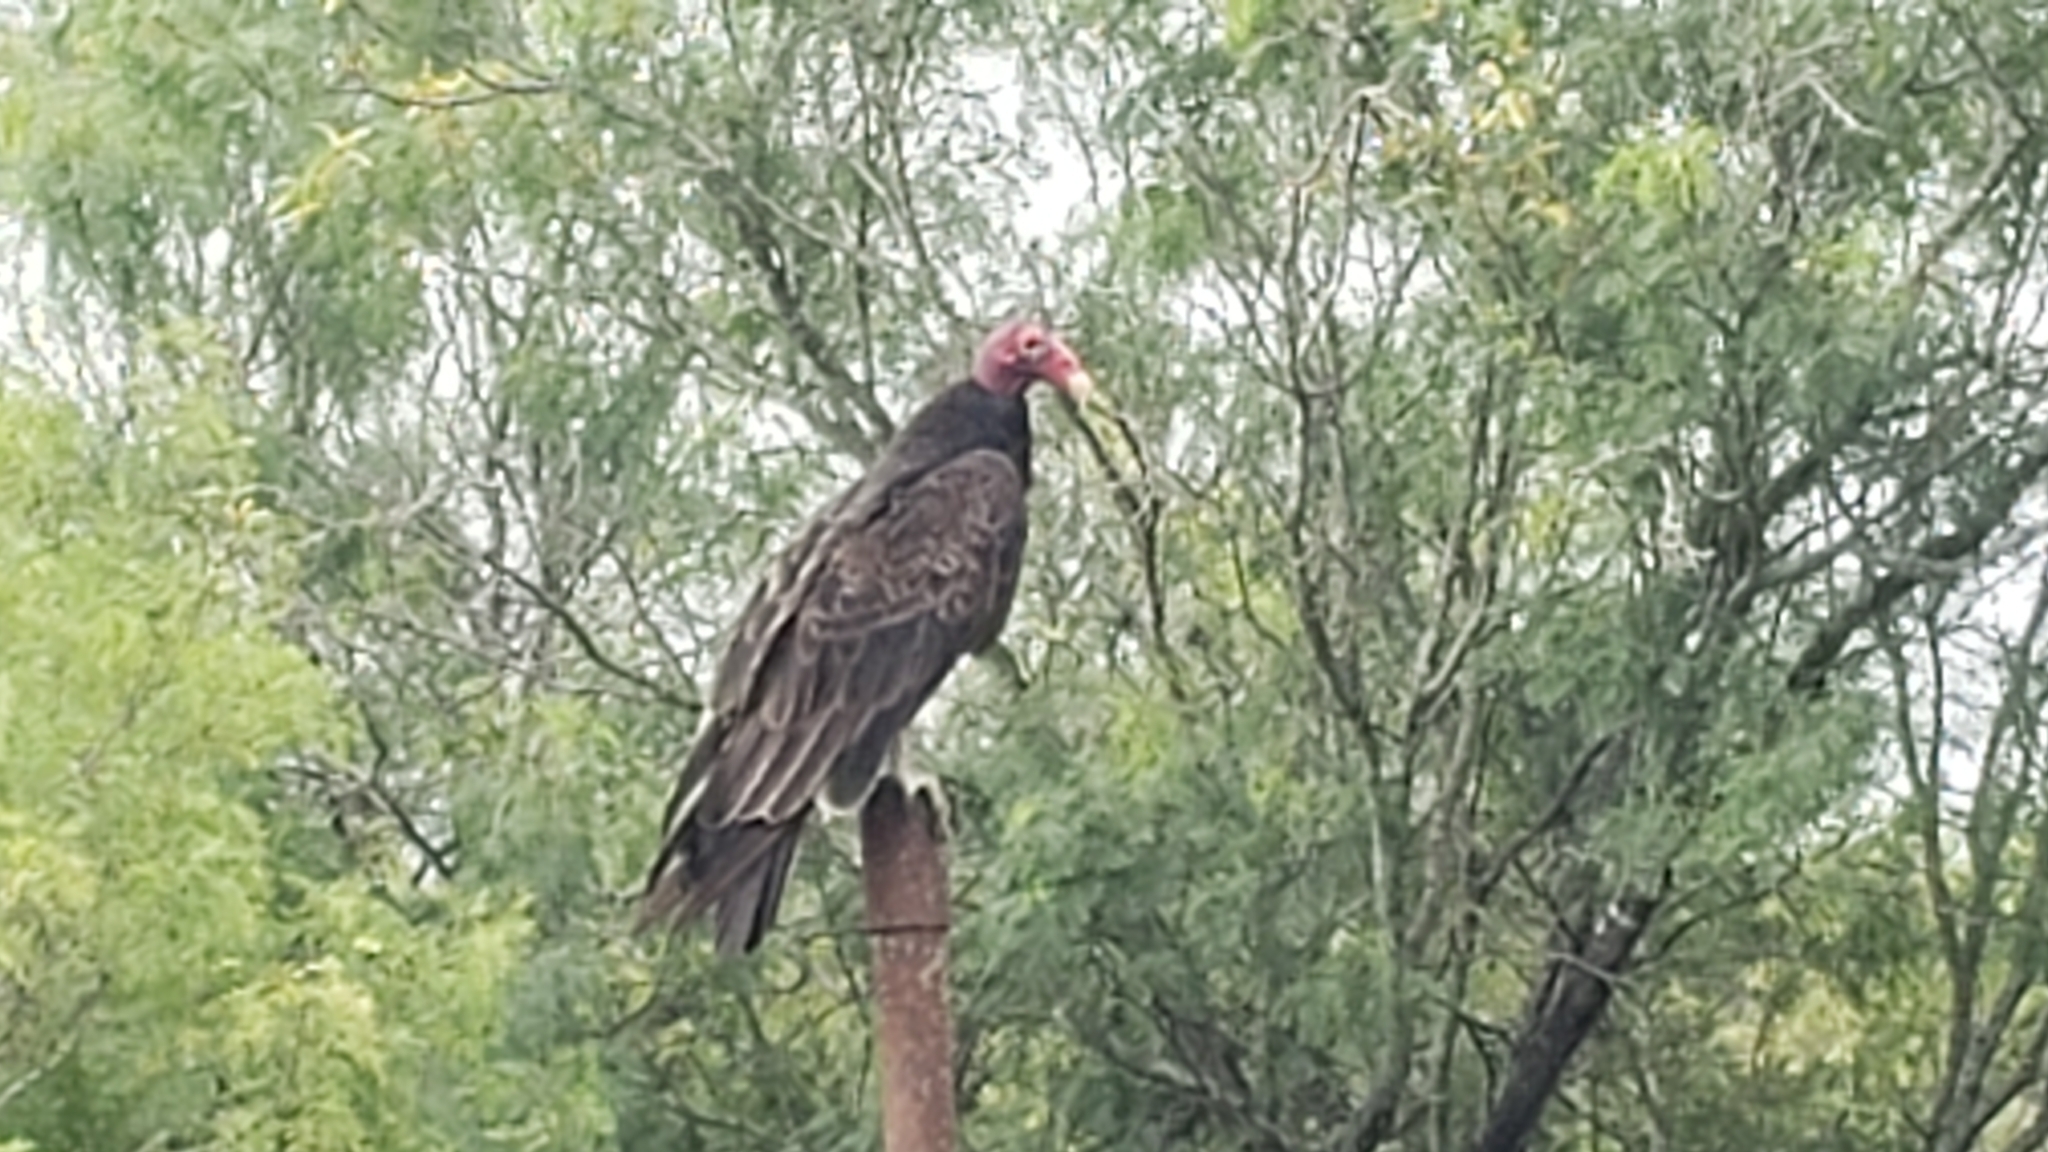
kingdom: Animalia
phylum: Chordata
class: Aves
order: Accipitriformes
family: Cathartidae
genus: Cathartes
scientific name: Cathartes aura
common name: Turkey vulture
